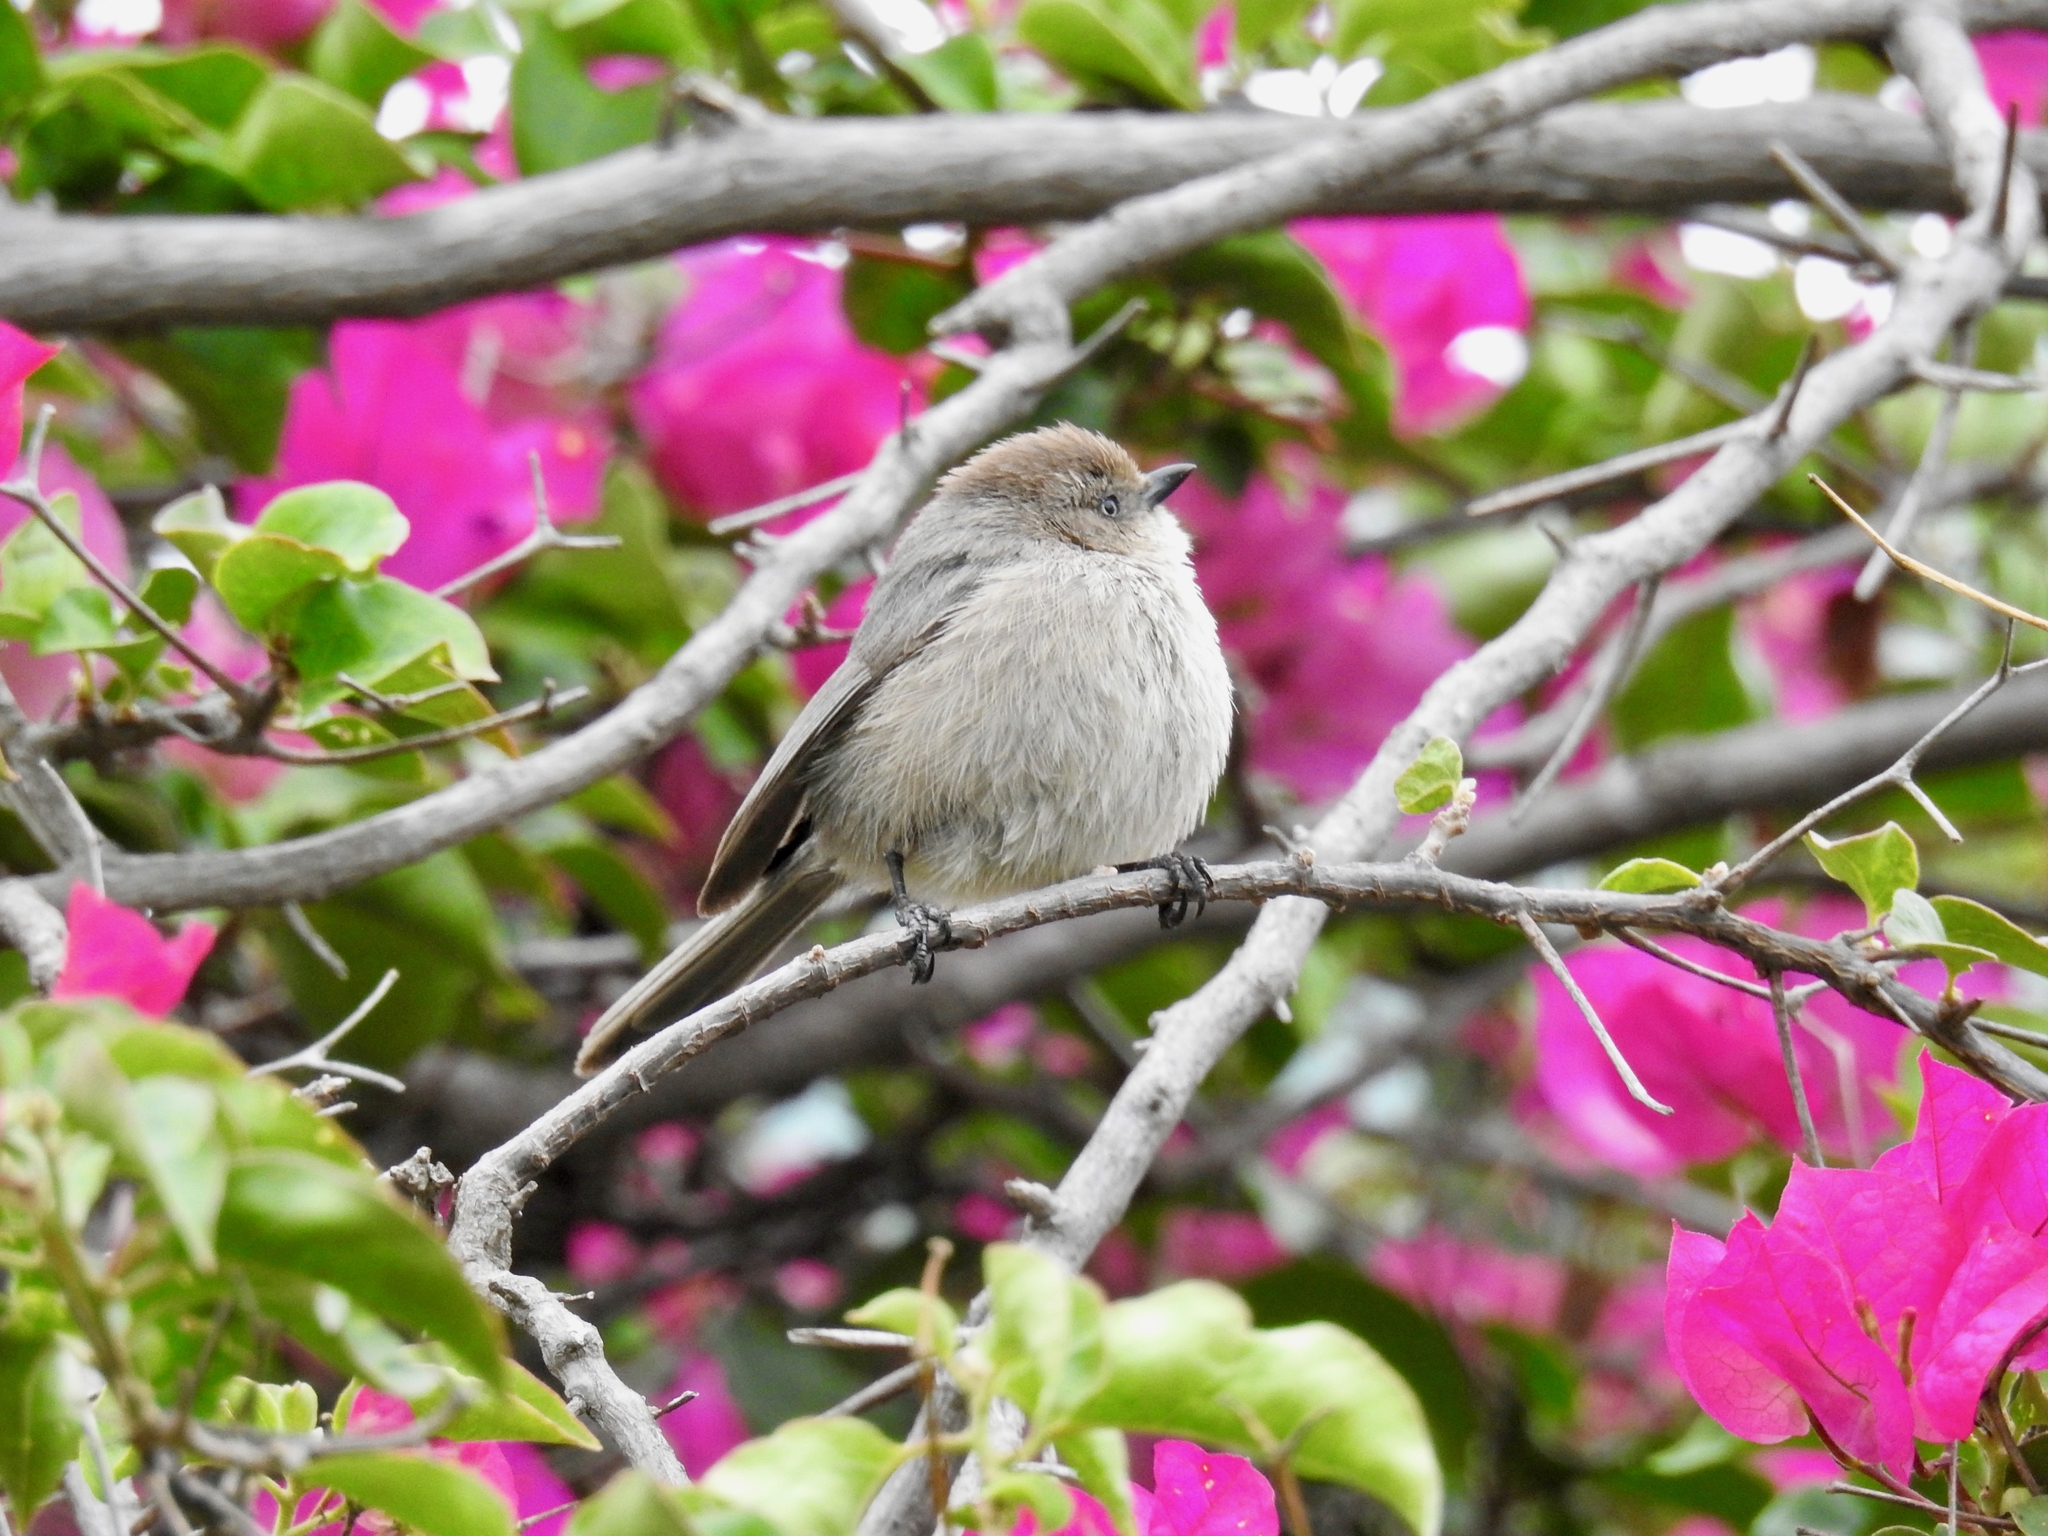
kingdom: Animalia
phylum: Chordata
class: Aves
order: Passeriformes
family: Aegithalidae
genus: Psaltriparus
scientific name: Psaltriparus minimus
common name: American bushtit
